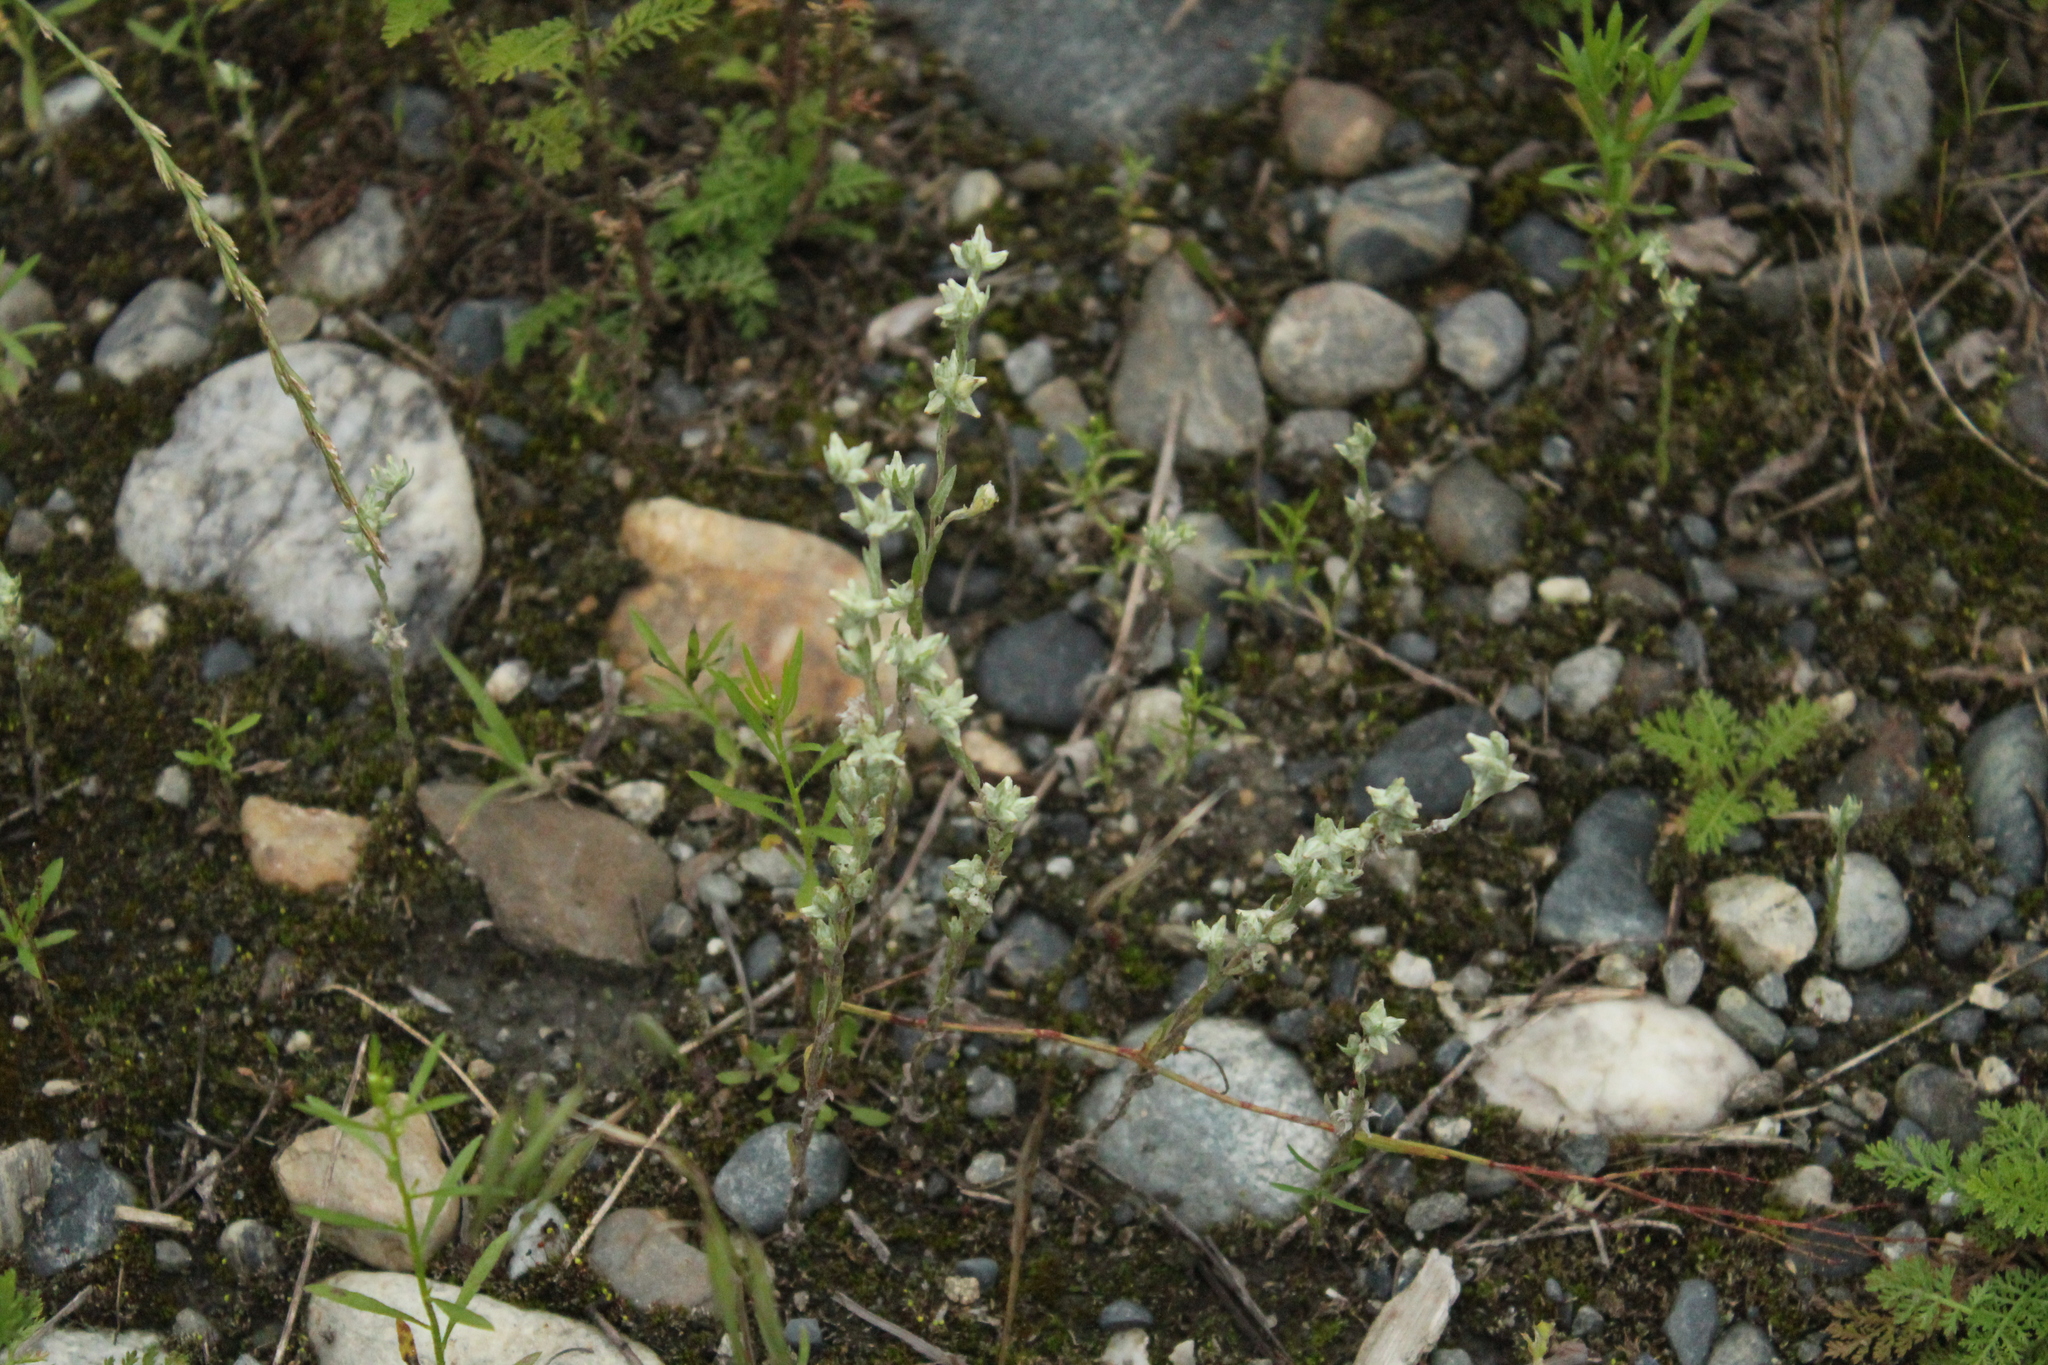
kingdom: Plantae
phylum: Tracheophyta
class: Magnoliopsida
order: Asterales
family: Asteraceae
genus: Filago
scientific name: Filago arvensis
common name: Field cudweed
